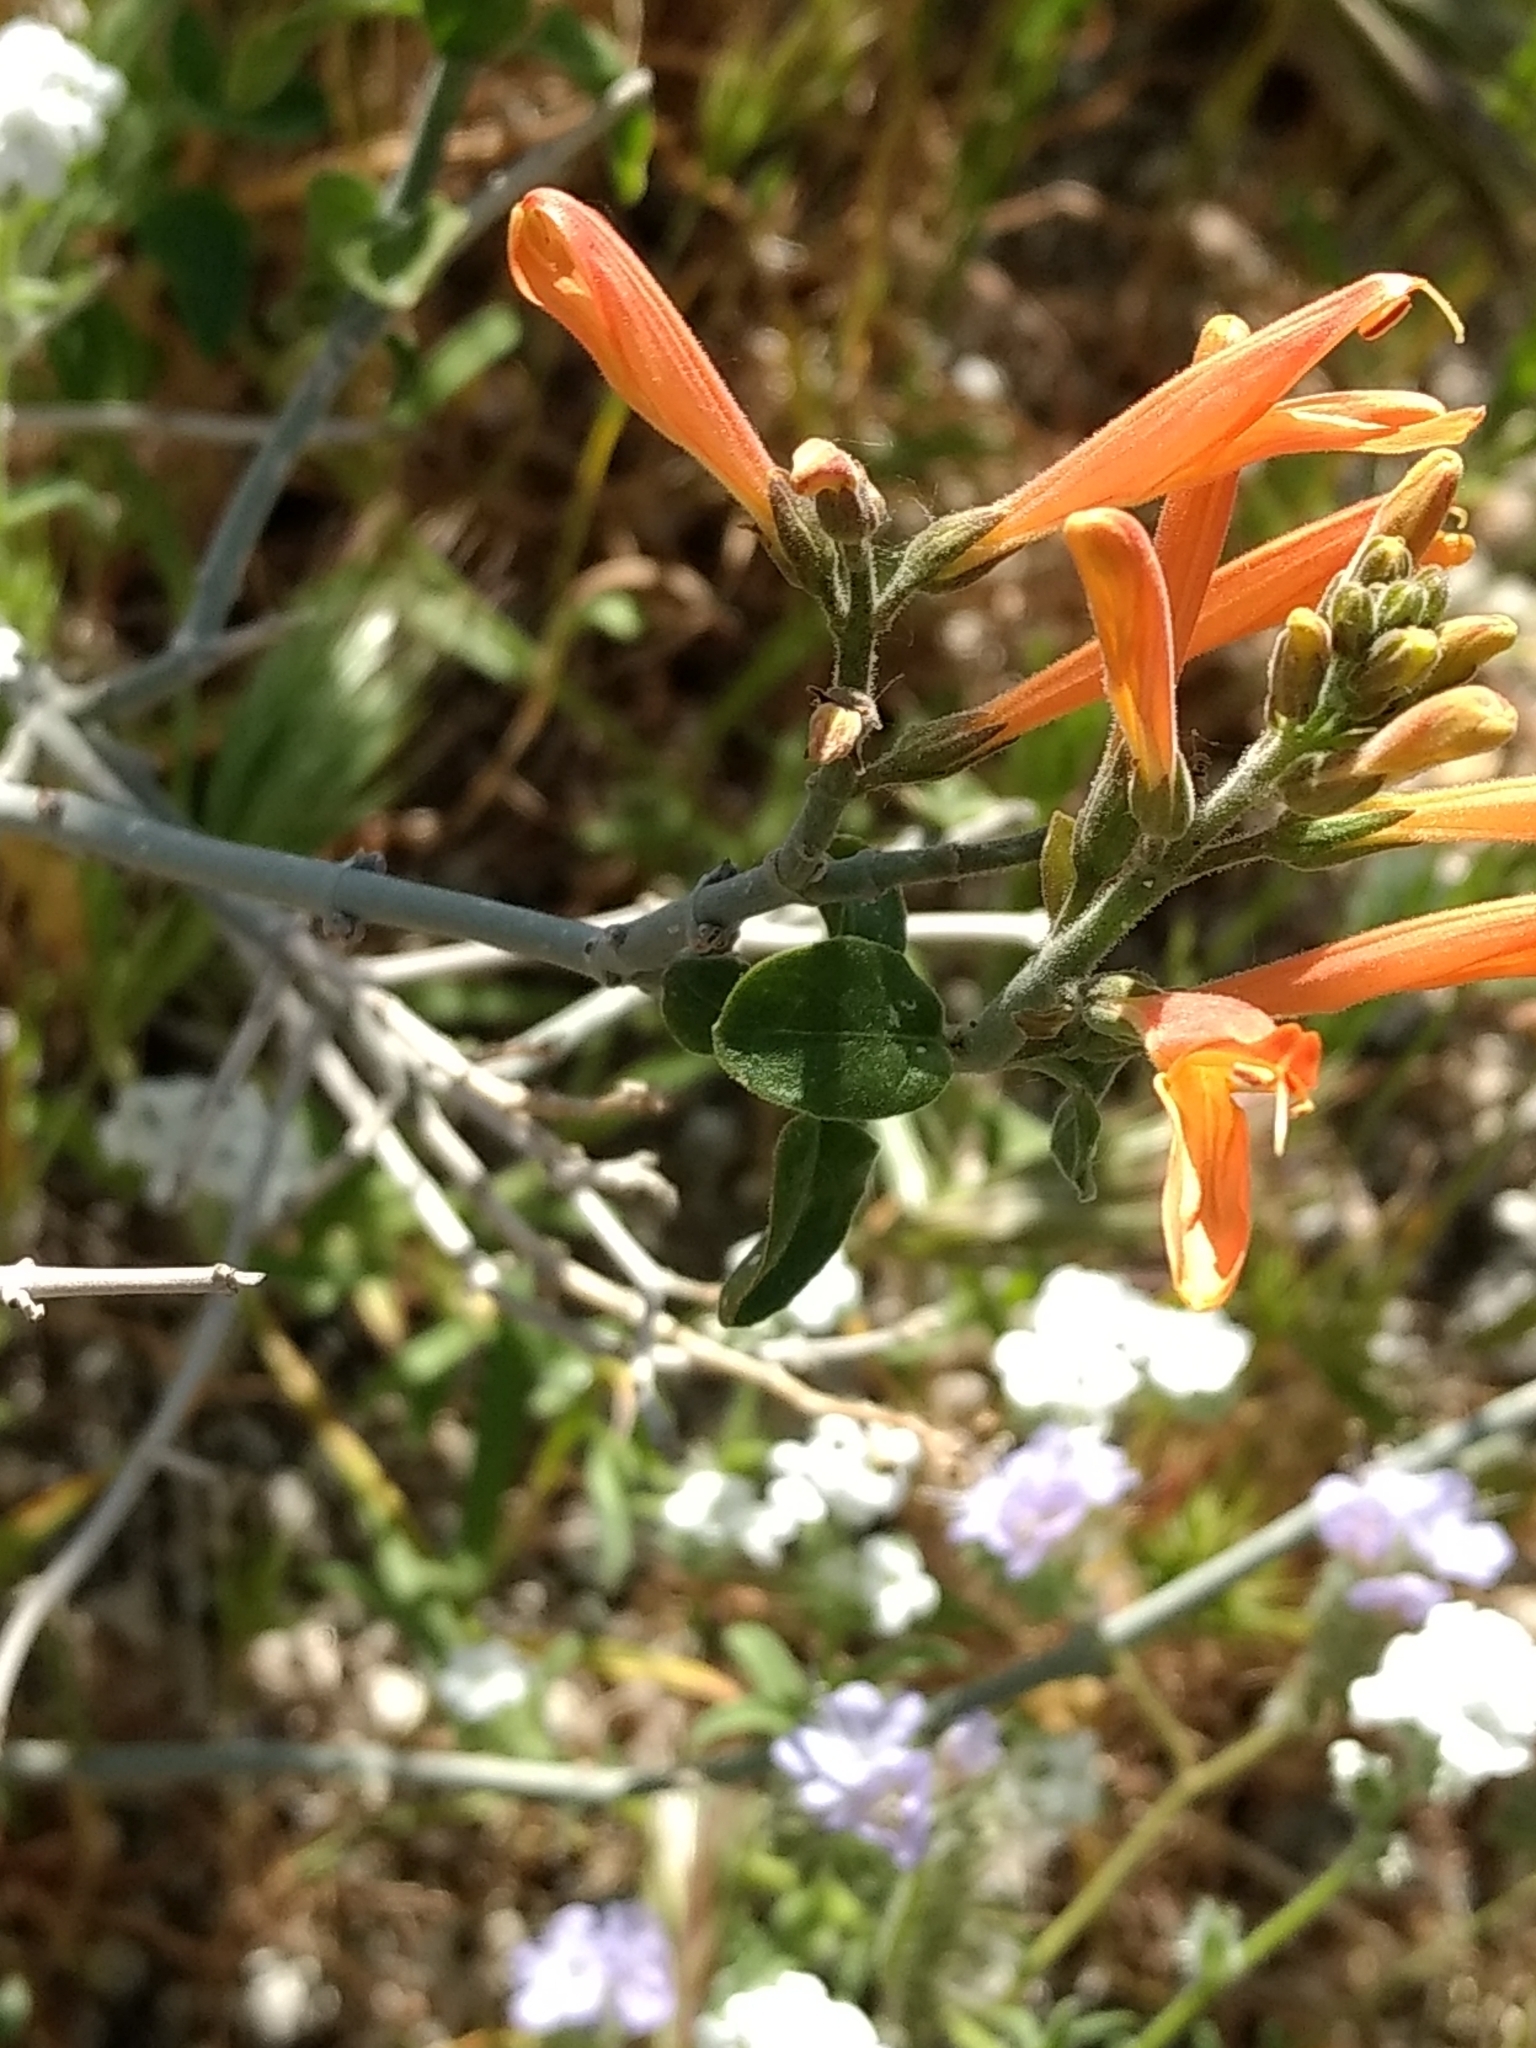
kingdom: Plantae
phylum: Tracheophyta
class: Magnoliopsida
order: Lamiales
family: Acanthaceae
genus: Justicia
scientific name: Justicia californica
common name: Chuparosa-honeysuckle
